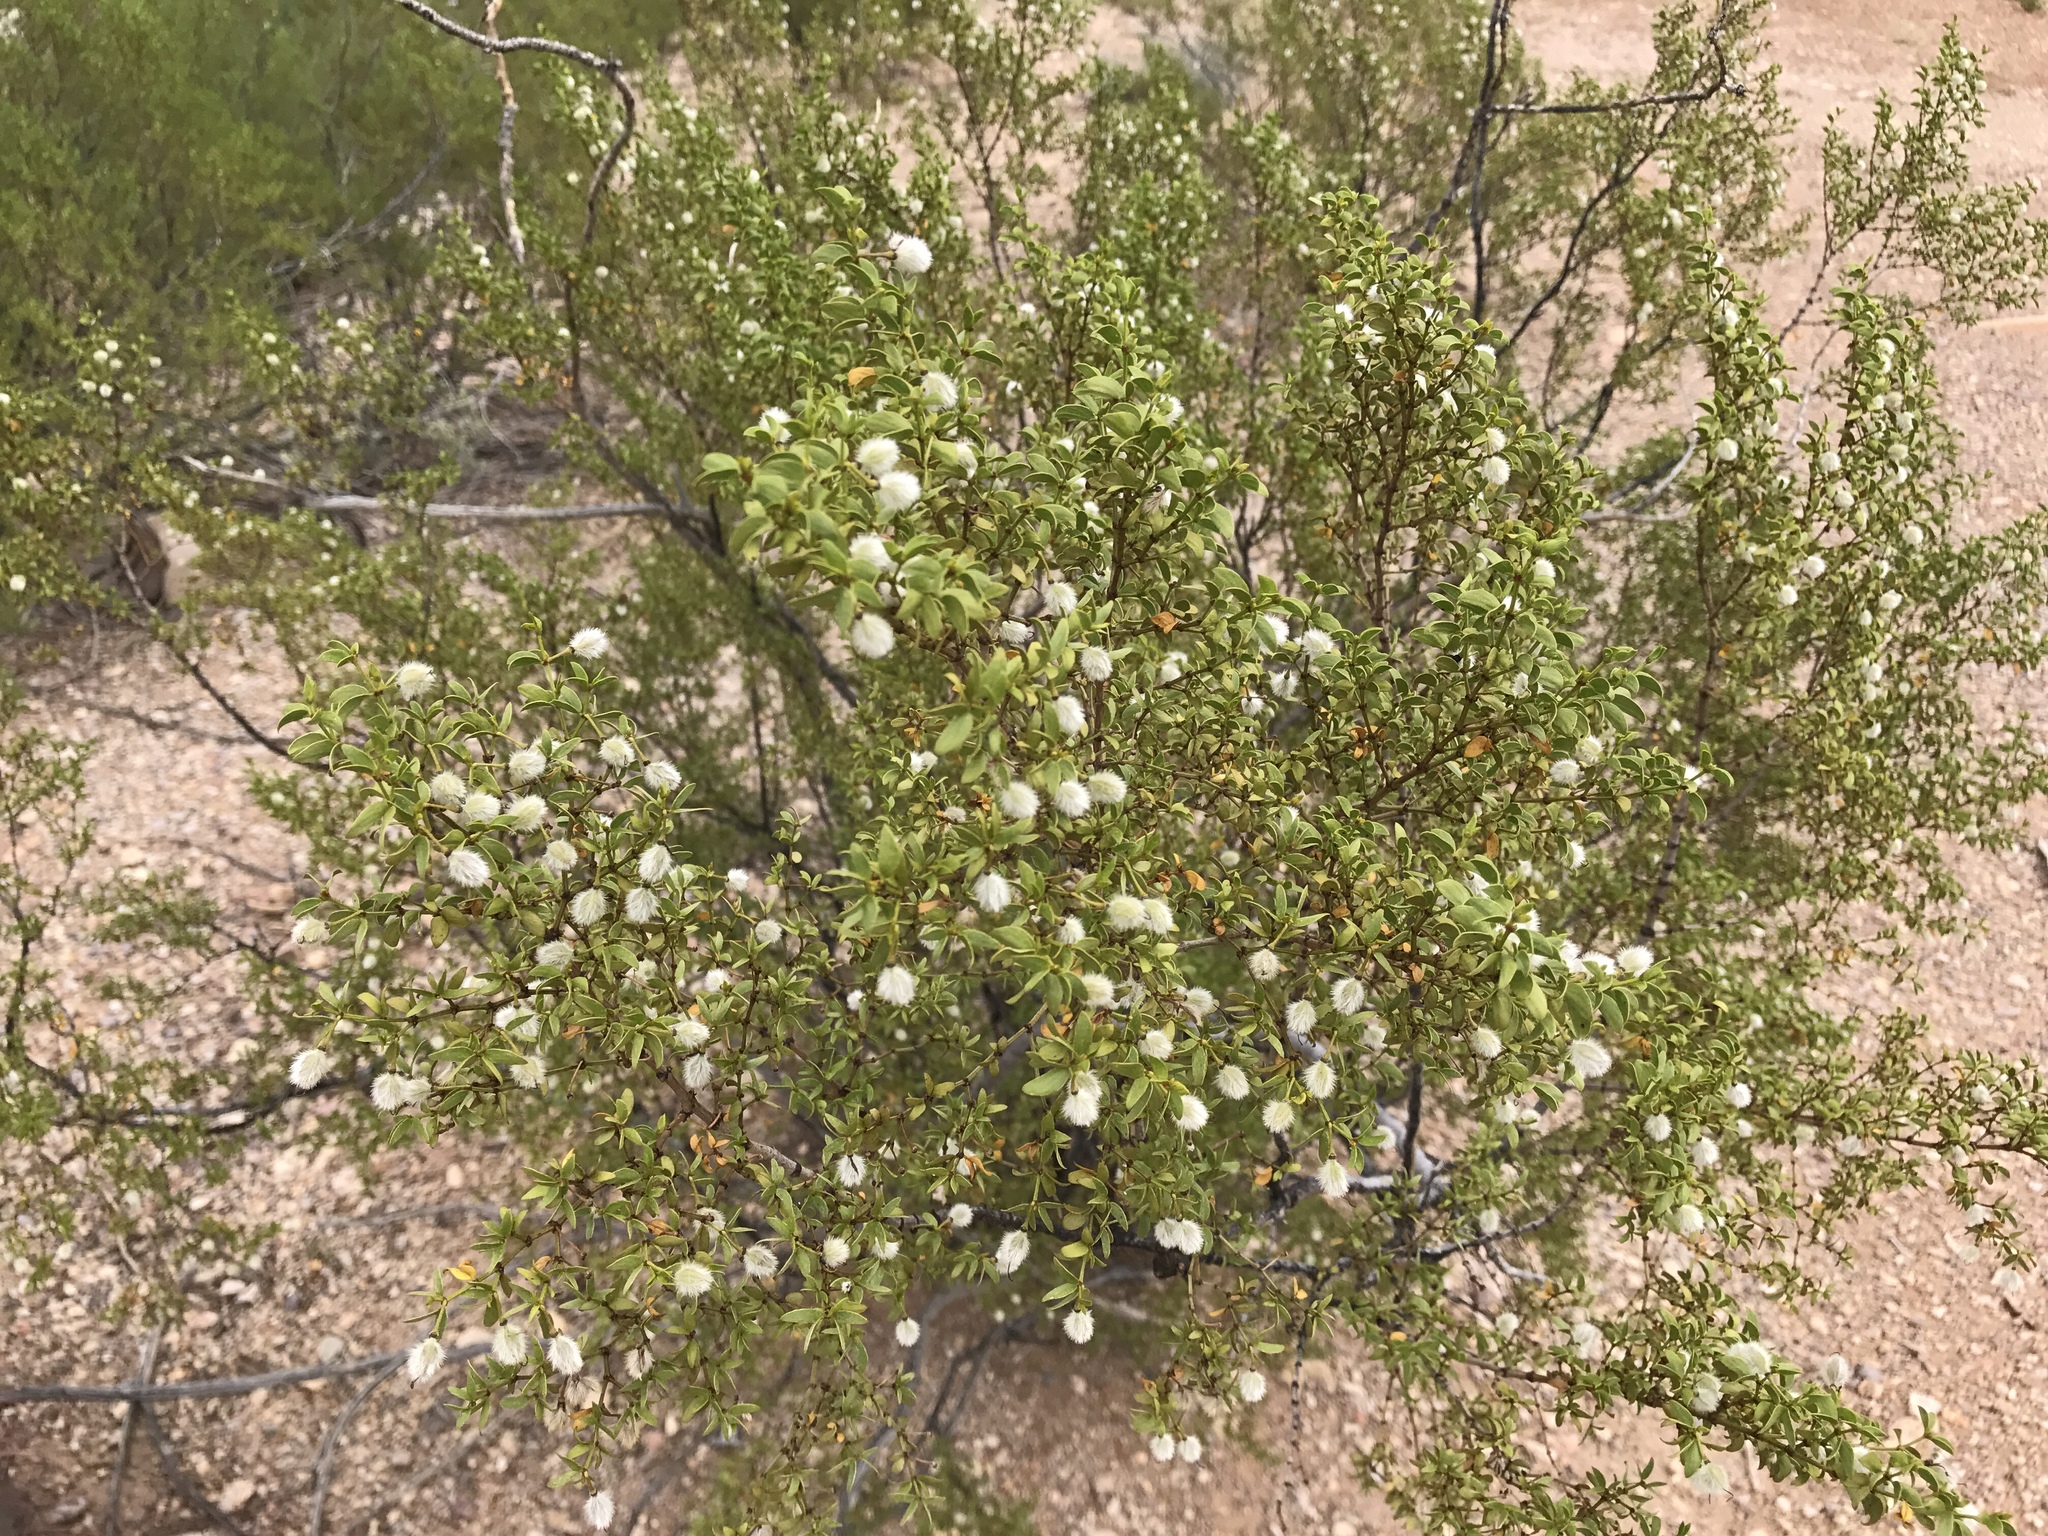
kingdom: Plantae
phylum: Tracheophyta
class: Magnoliopsida
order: Zygophyllales
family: Zygophyllaceae
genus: Larrea
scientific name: Larrea tridentata
